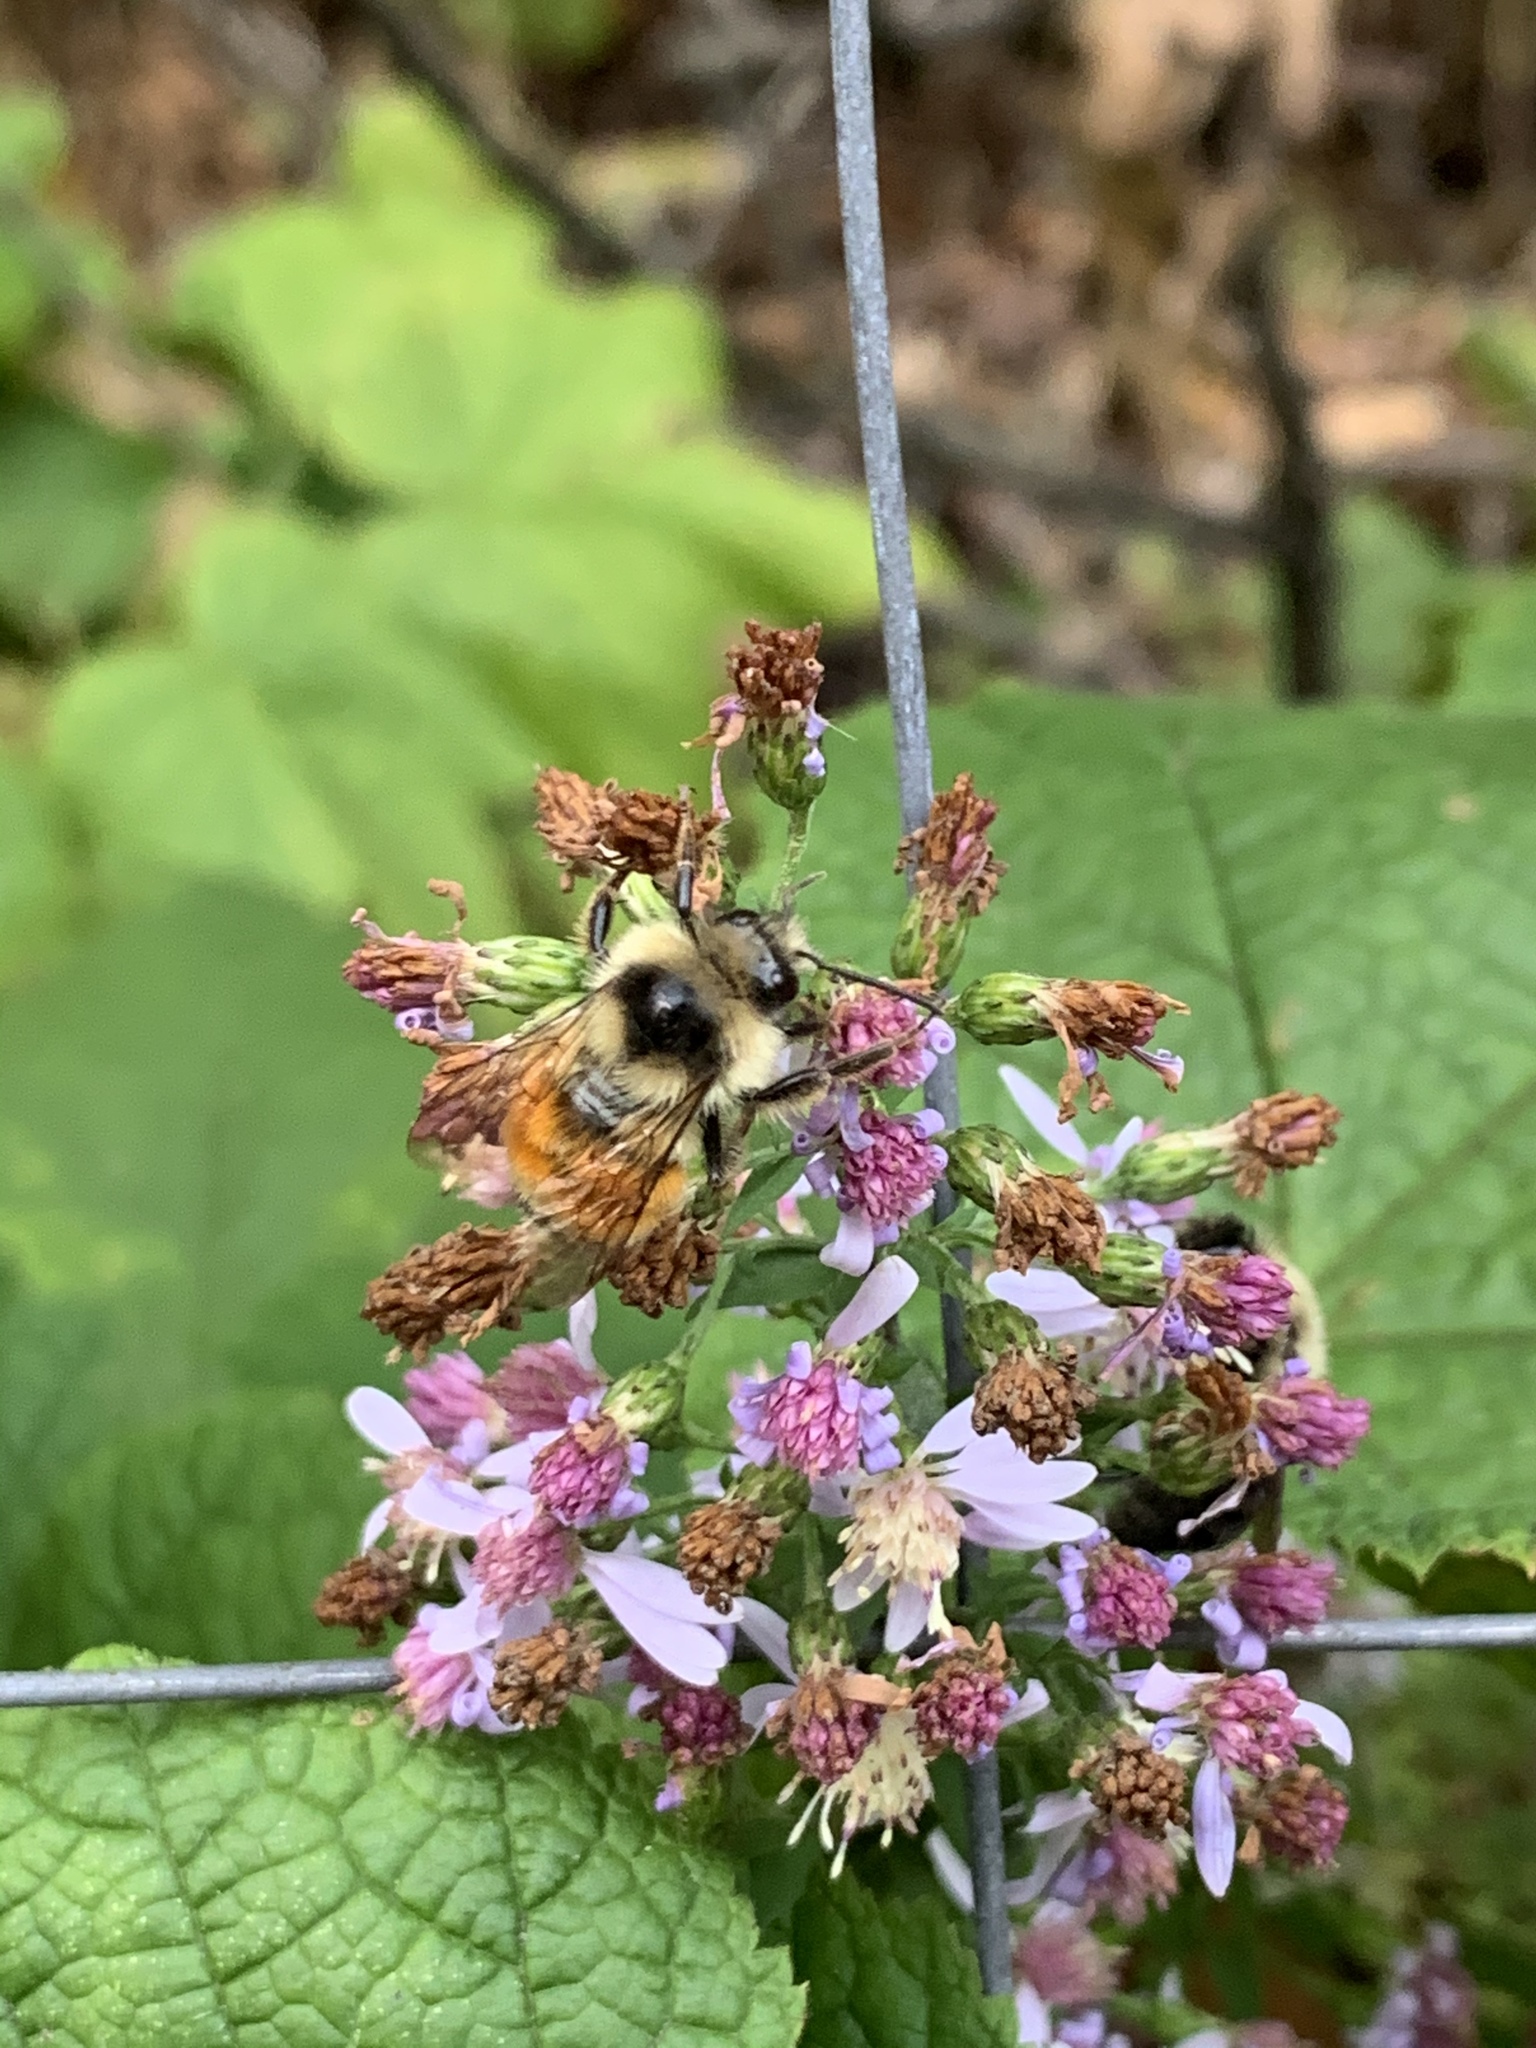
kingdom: Animalia
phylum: Arthropoda
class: Insecta
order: Hymenoptera
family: Apidae
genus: Bombus
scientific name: Bombus ternarius
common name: Tri-colored bumble bee
